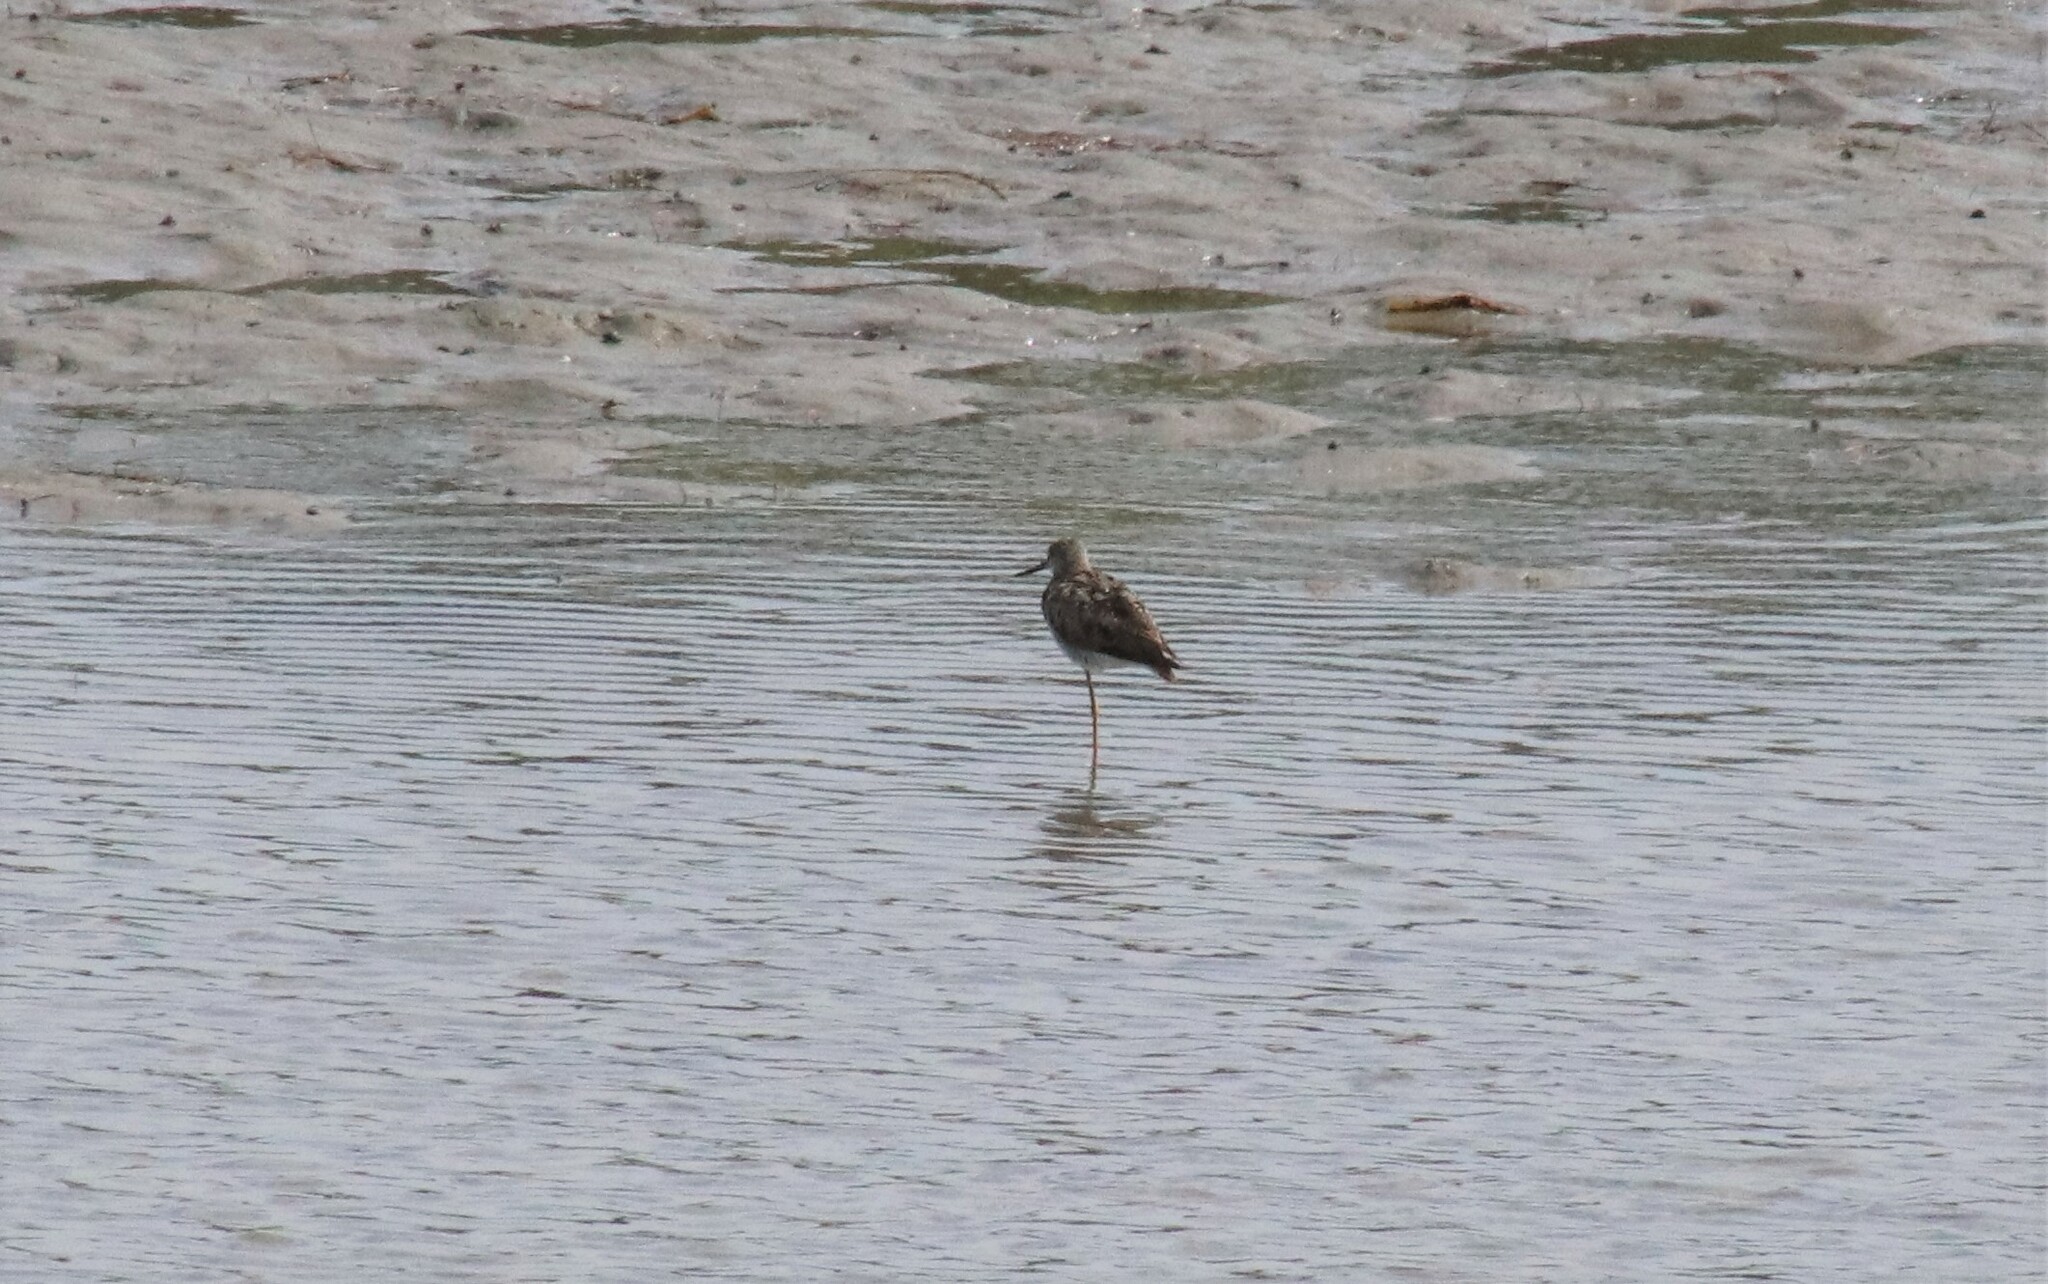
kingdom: Animalia
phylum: Chordata
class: Aves
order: Charadriiformes
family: Scolopacidae
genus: Tringa
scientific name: Tringa melanoleuca
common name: Greater yellowlegs
